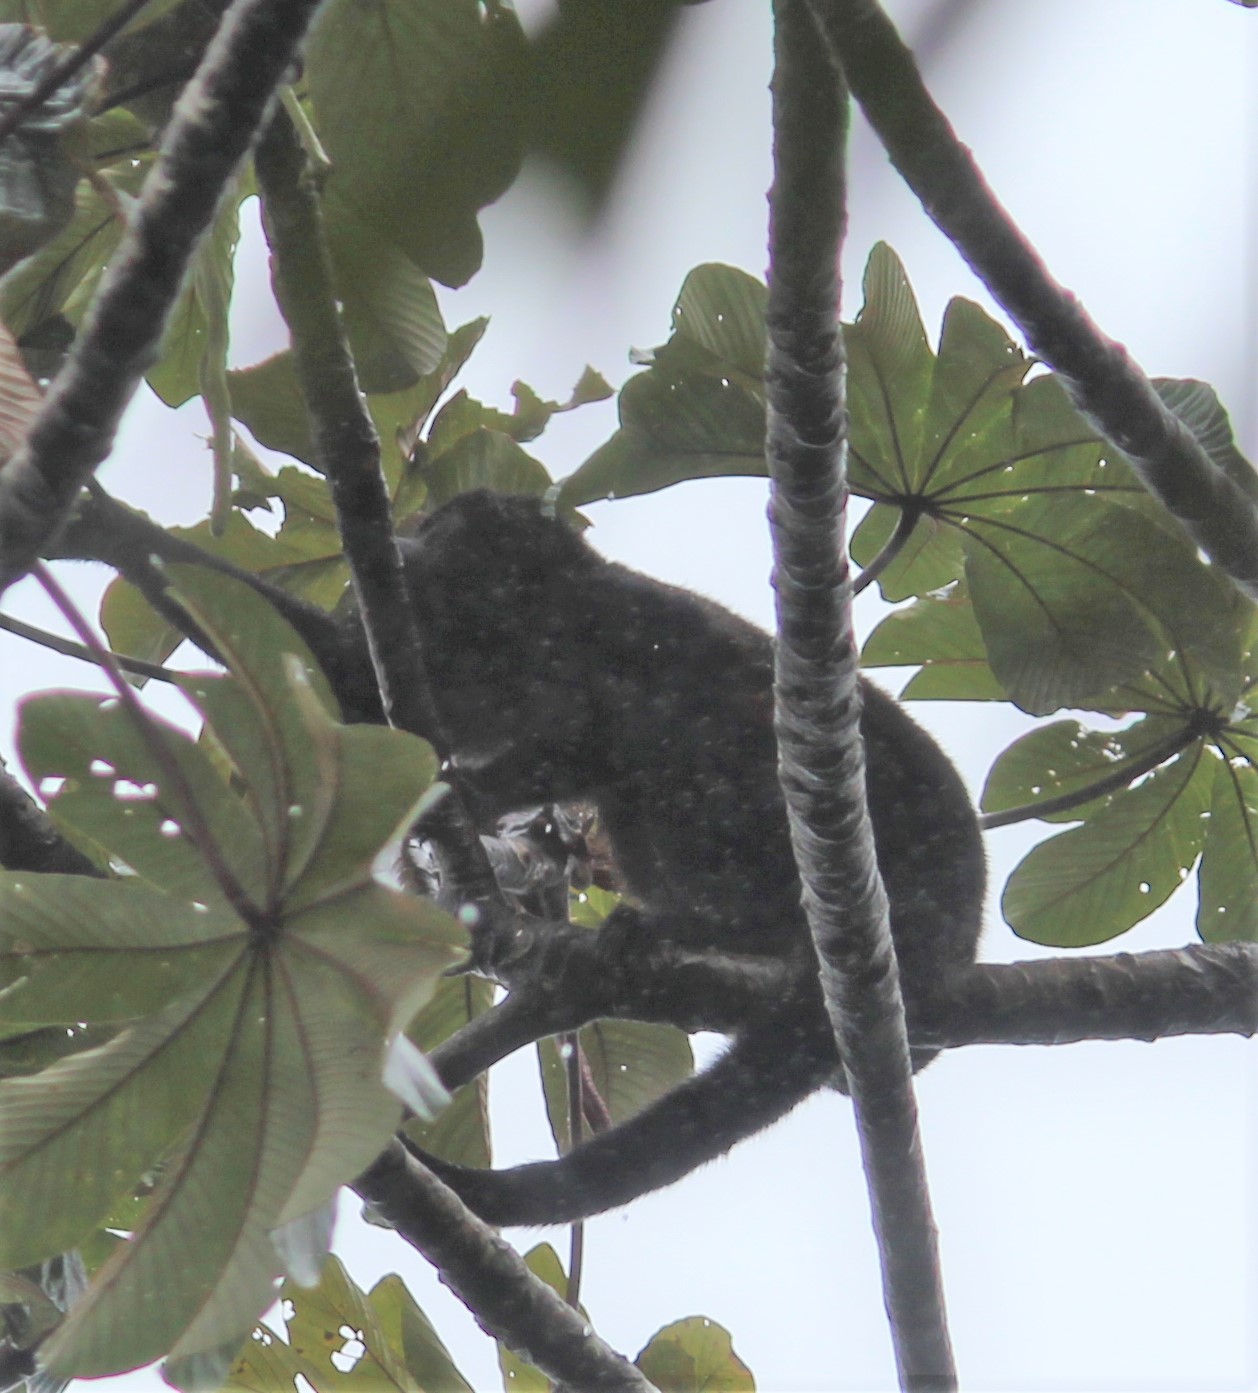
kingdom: Animalia
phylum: Chordata
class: Mammalia
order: Primates
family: Atelidae
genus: Alouatta
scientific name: Alouatta palliata
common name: Mantled howler
